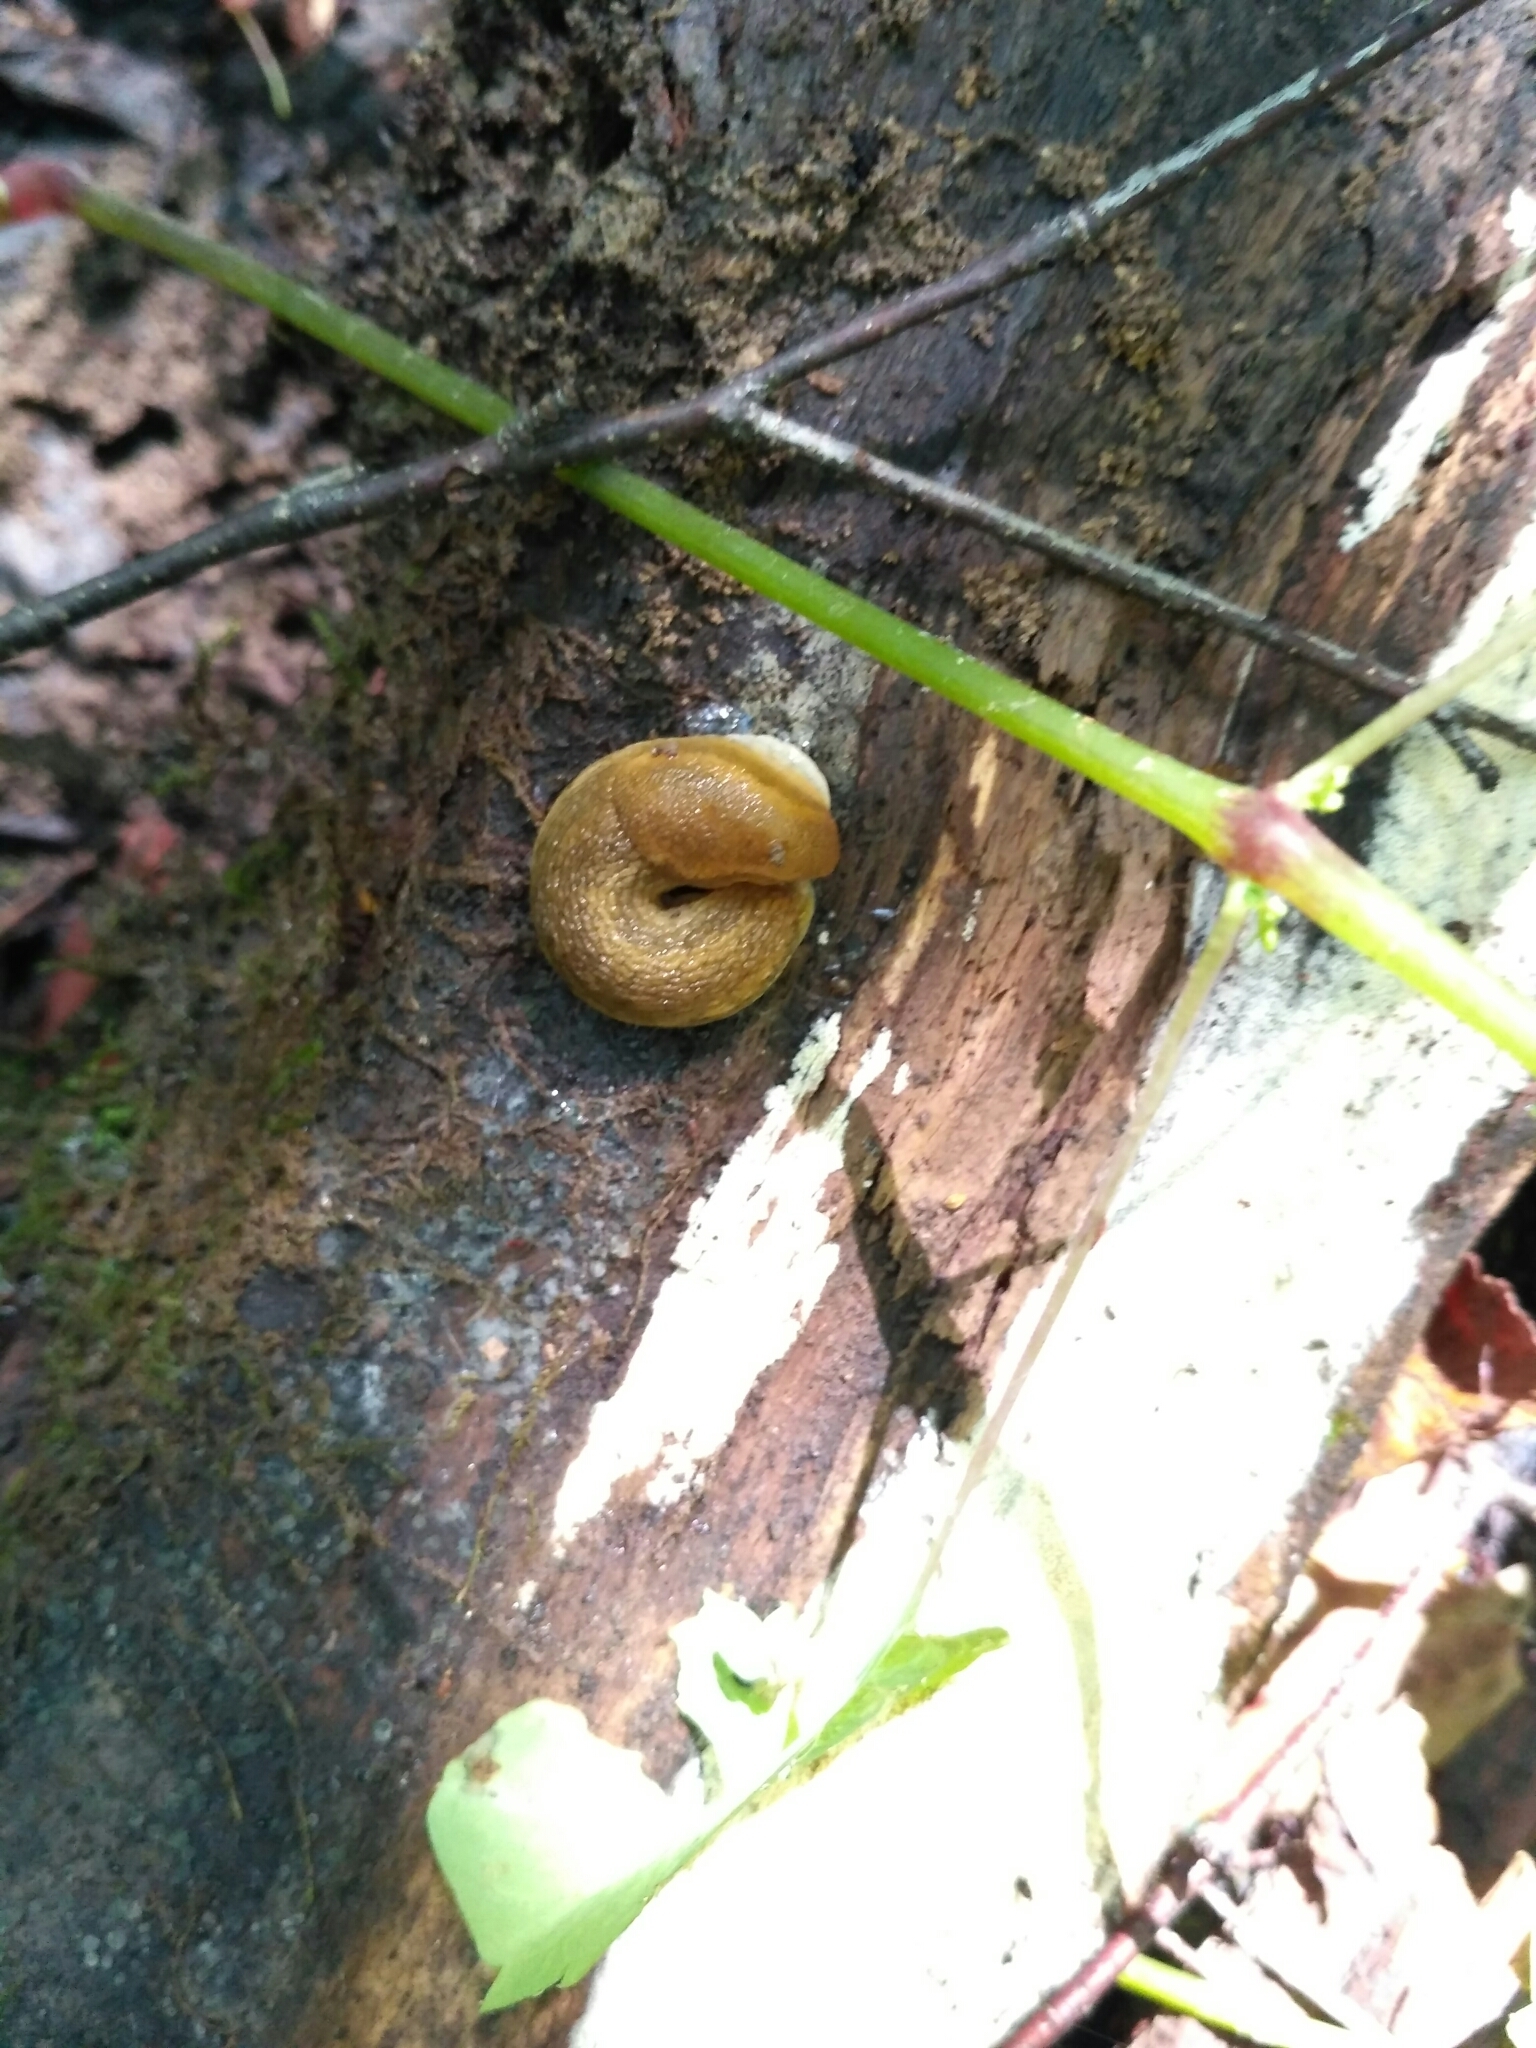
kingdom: Animalia
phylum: Mollusca
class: Gastropoda
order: Stylommatophora
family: Arionidae
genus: Arion
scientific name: Arion fuscus
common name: Northern dusky slug
